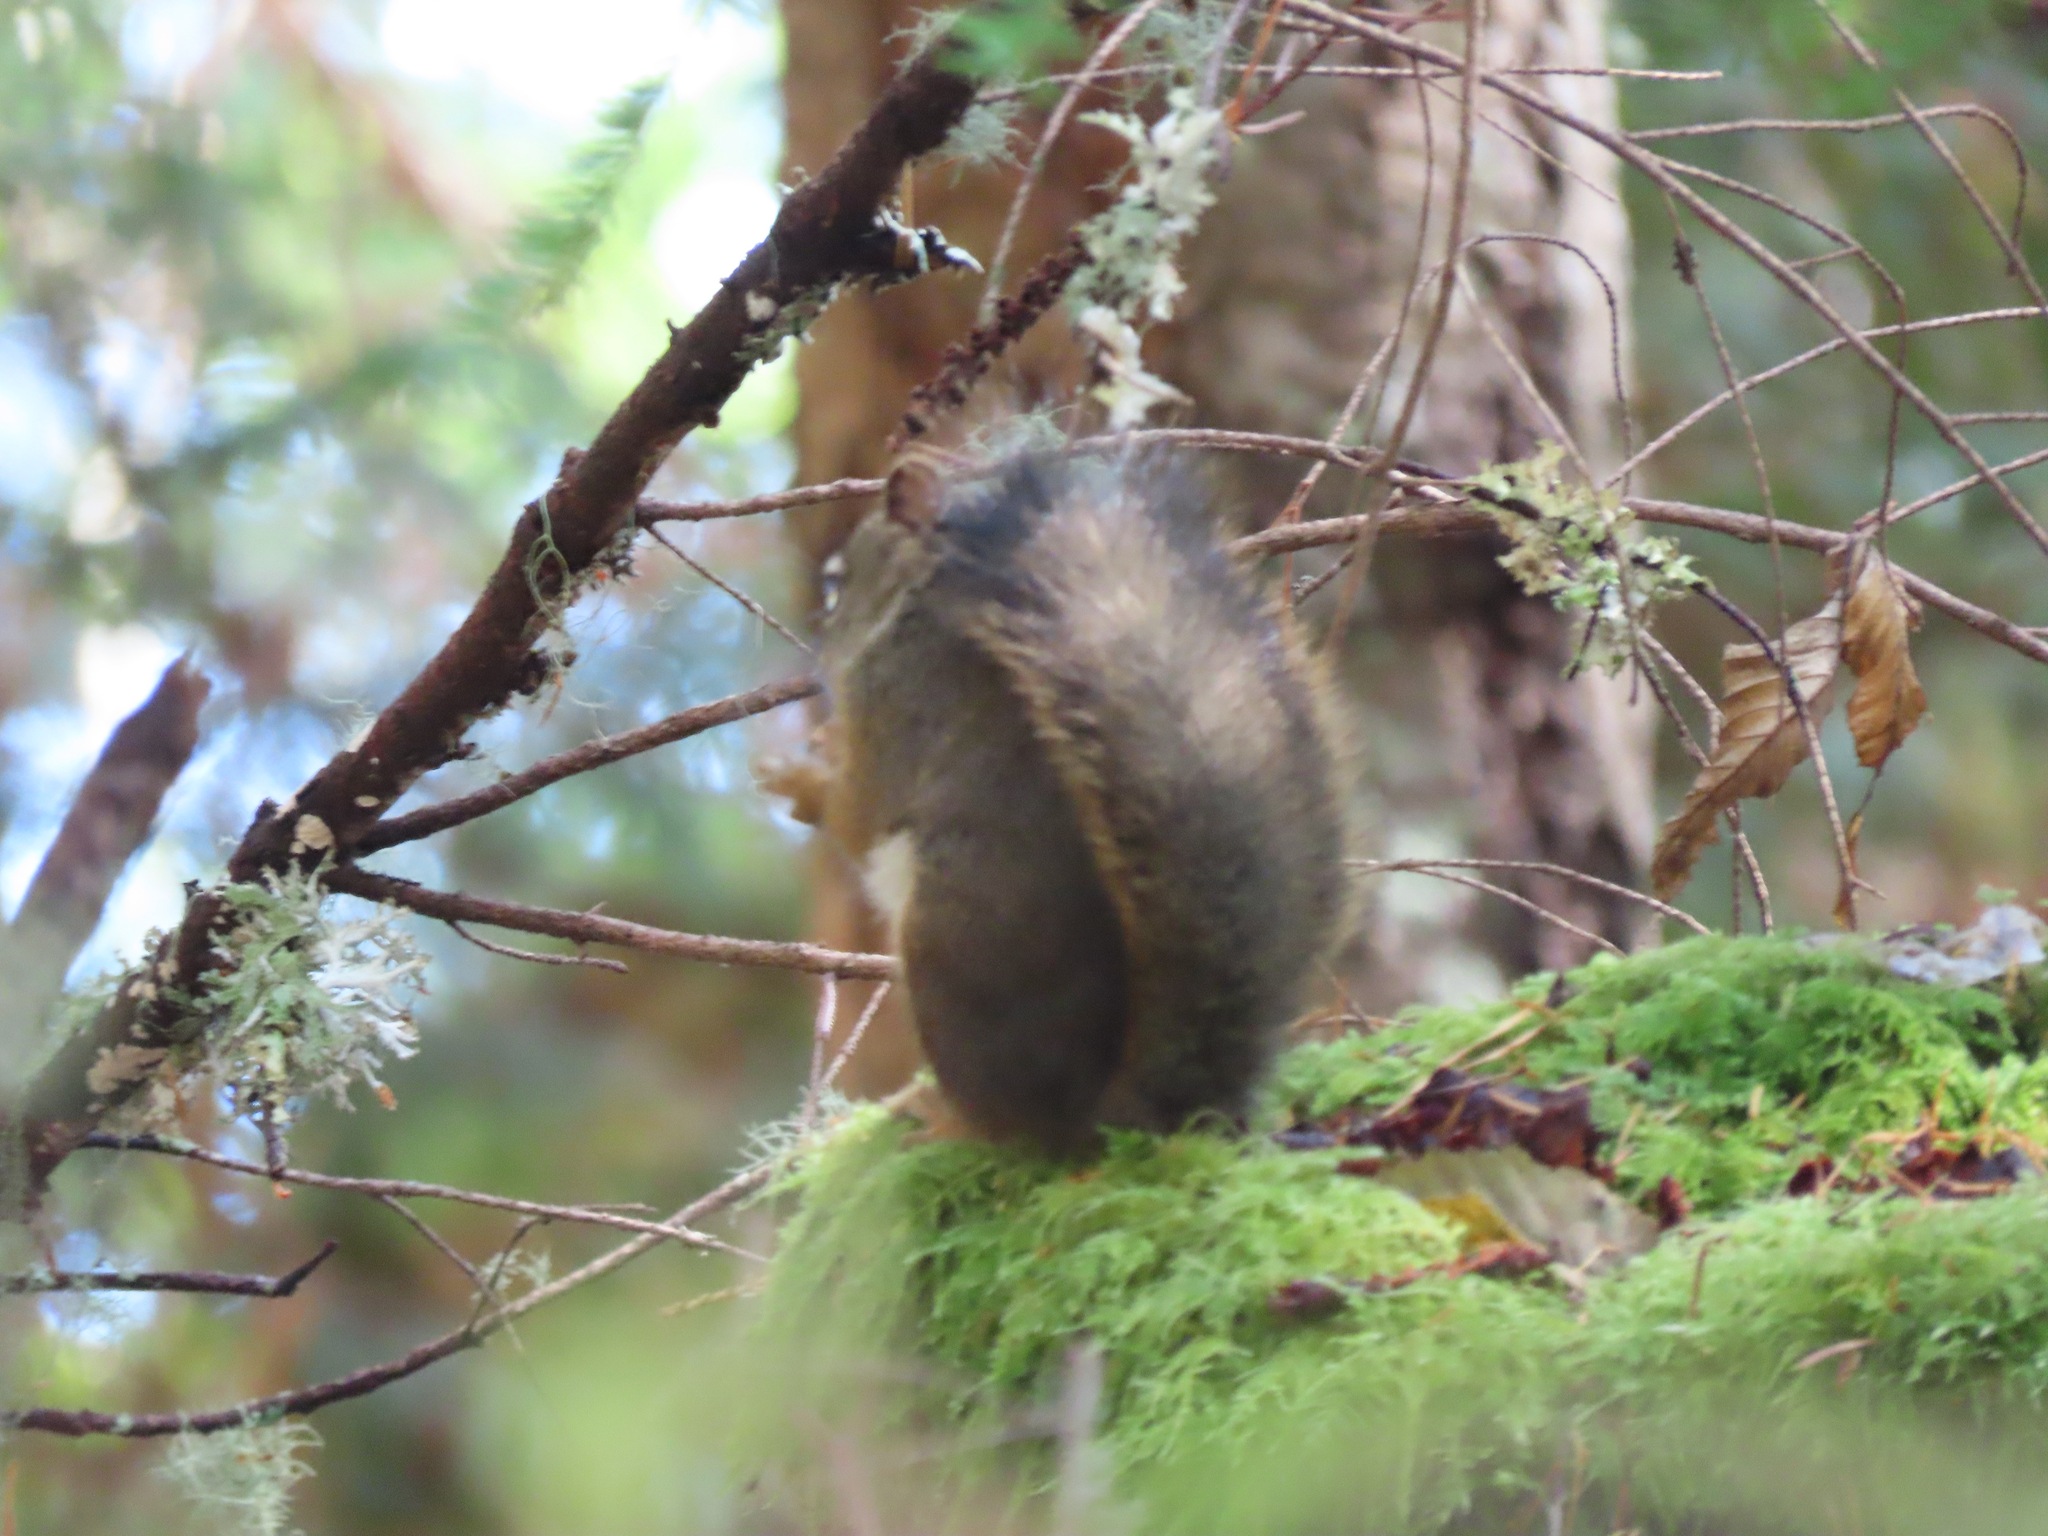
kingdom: Animalia
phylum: Chordata
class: Mammalia
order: Rodentia
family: Sciuridae
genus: Tamiasciurus
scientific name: Tamiasciurus hudsonicus
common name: Red squirrel
